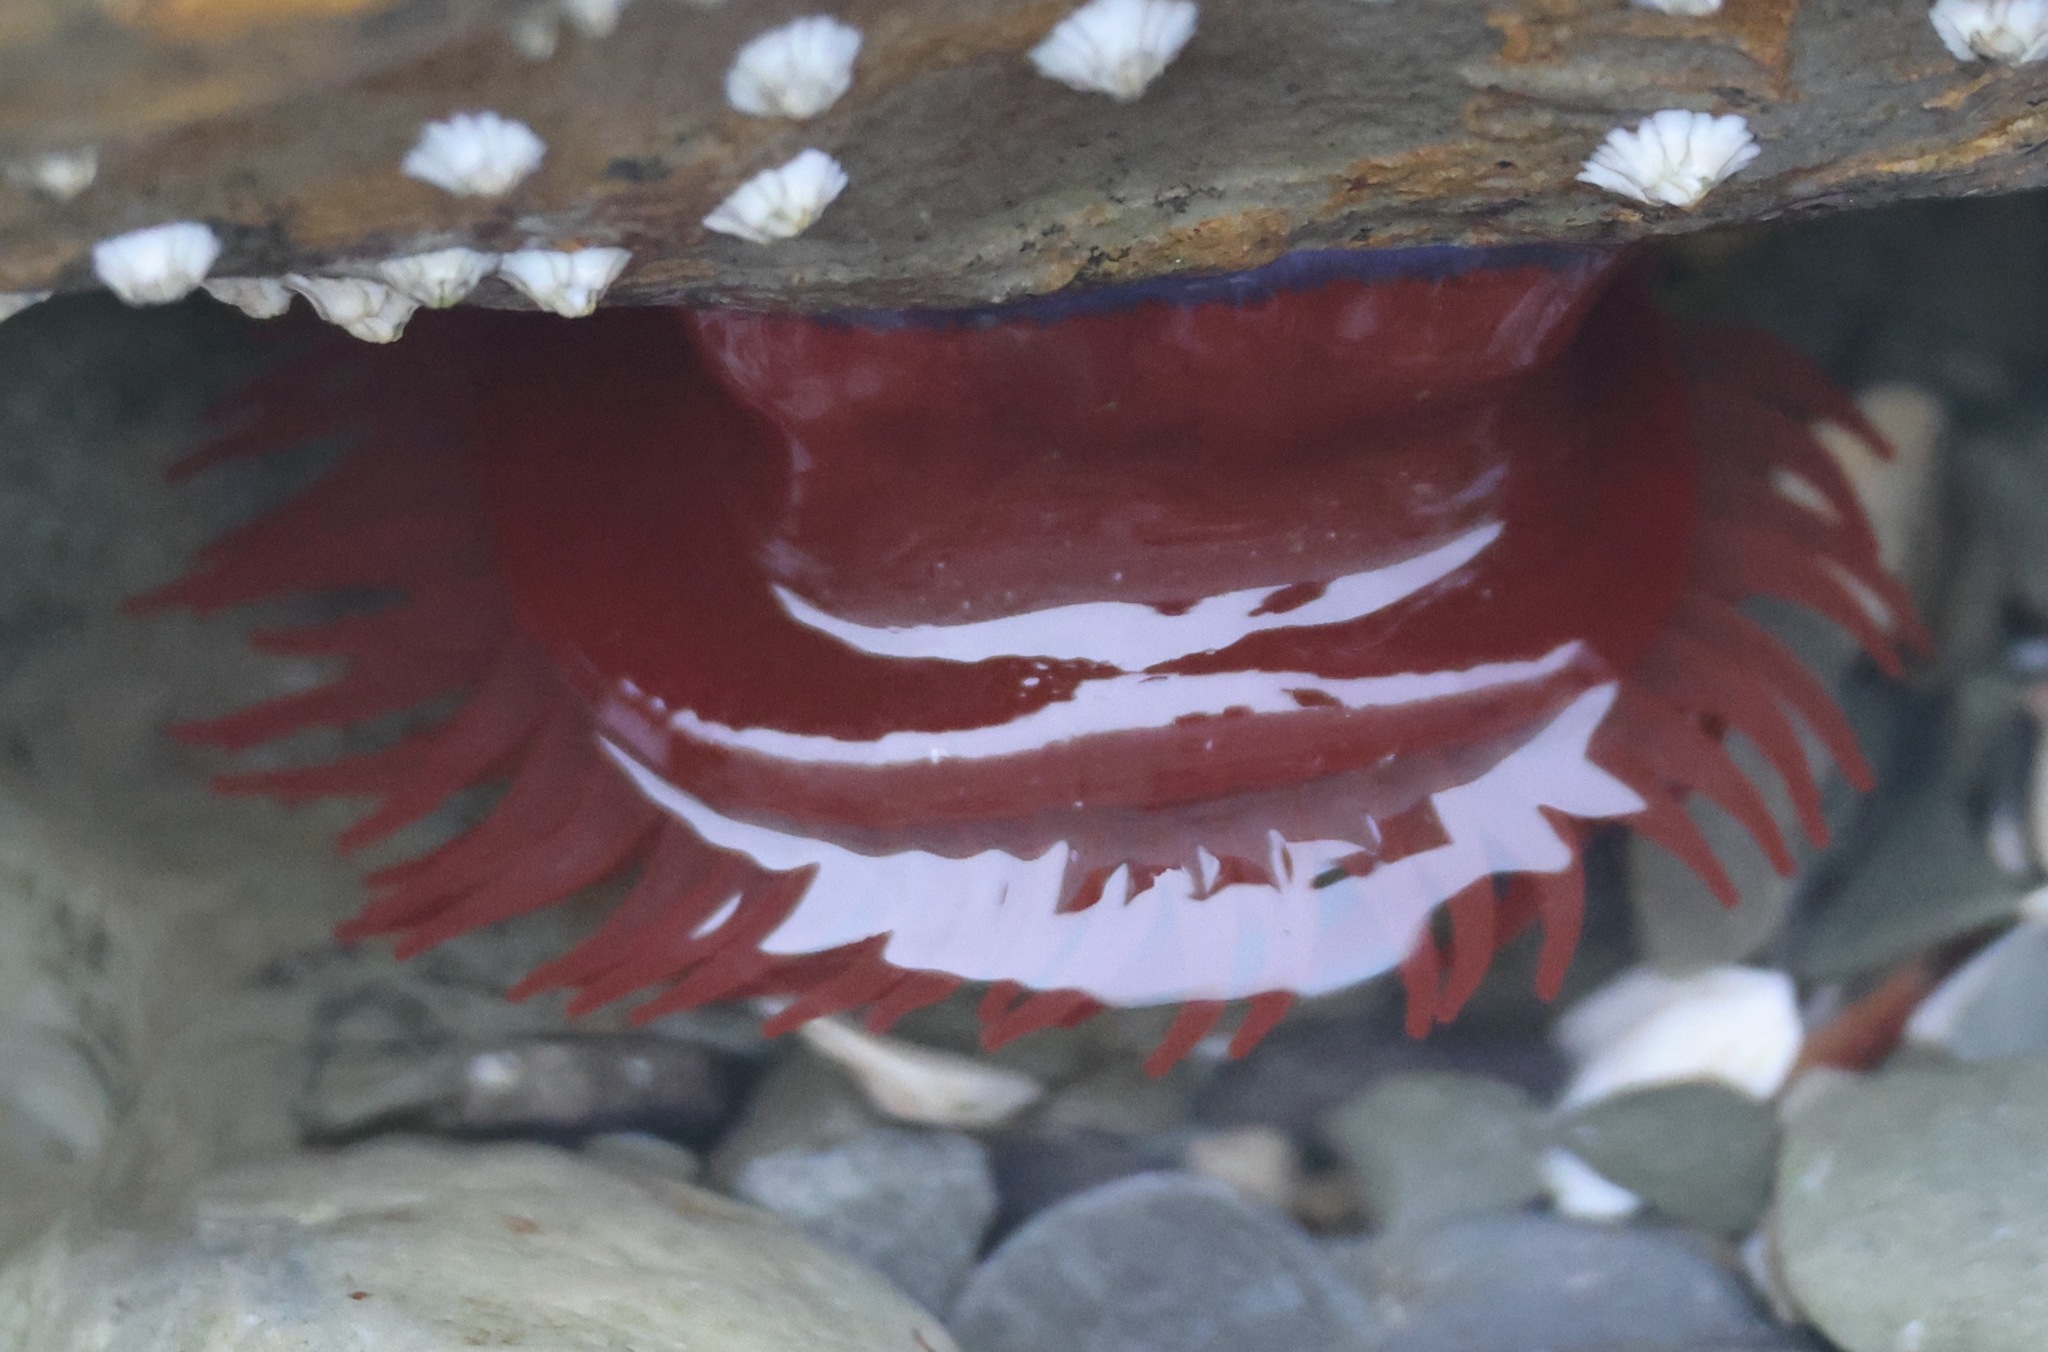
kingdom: Animalia
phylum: Cnidaria
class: Anthozoa
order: Actiniaria
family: Actiniidae
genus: Actinia
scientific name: Actinia equina
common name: Beadlet anemone
